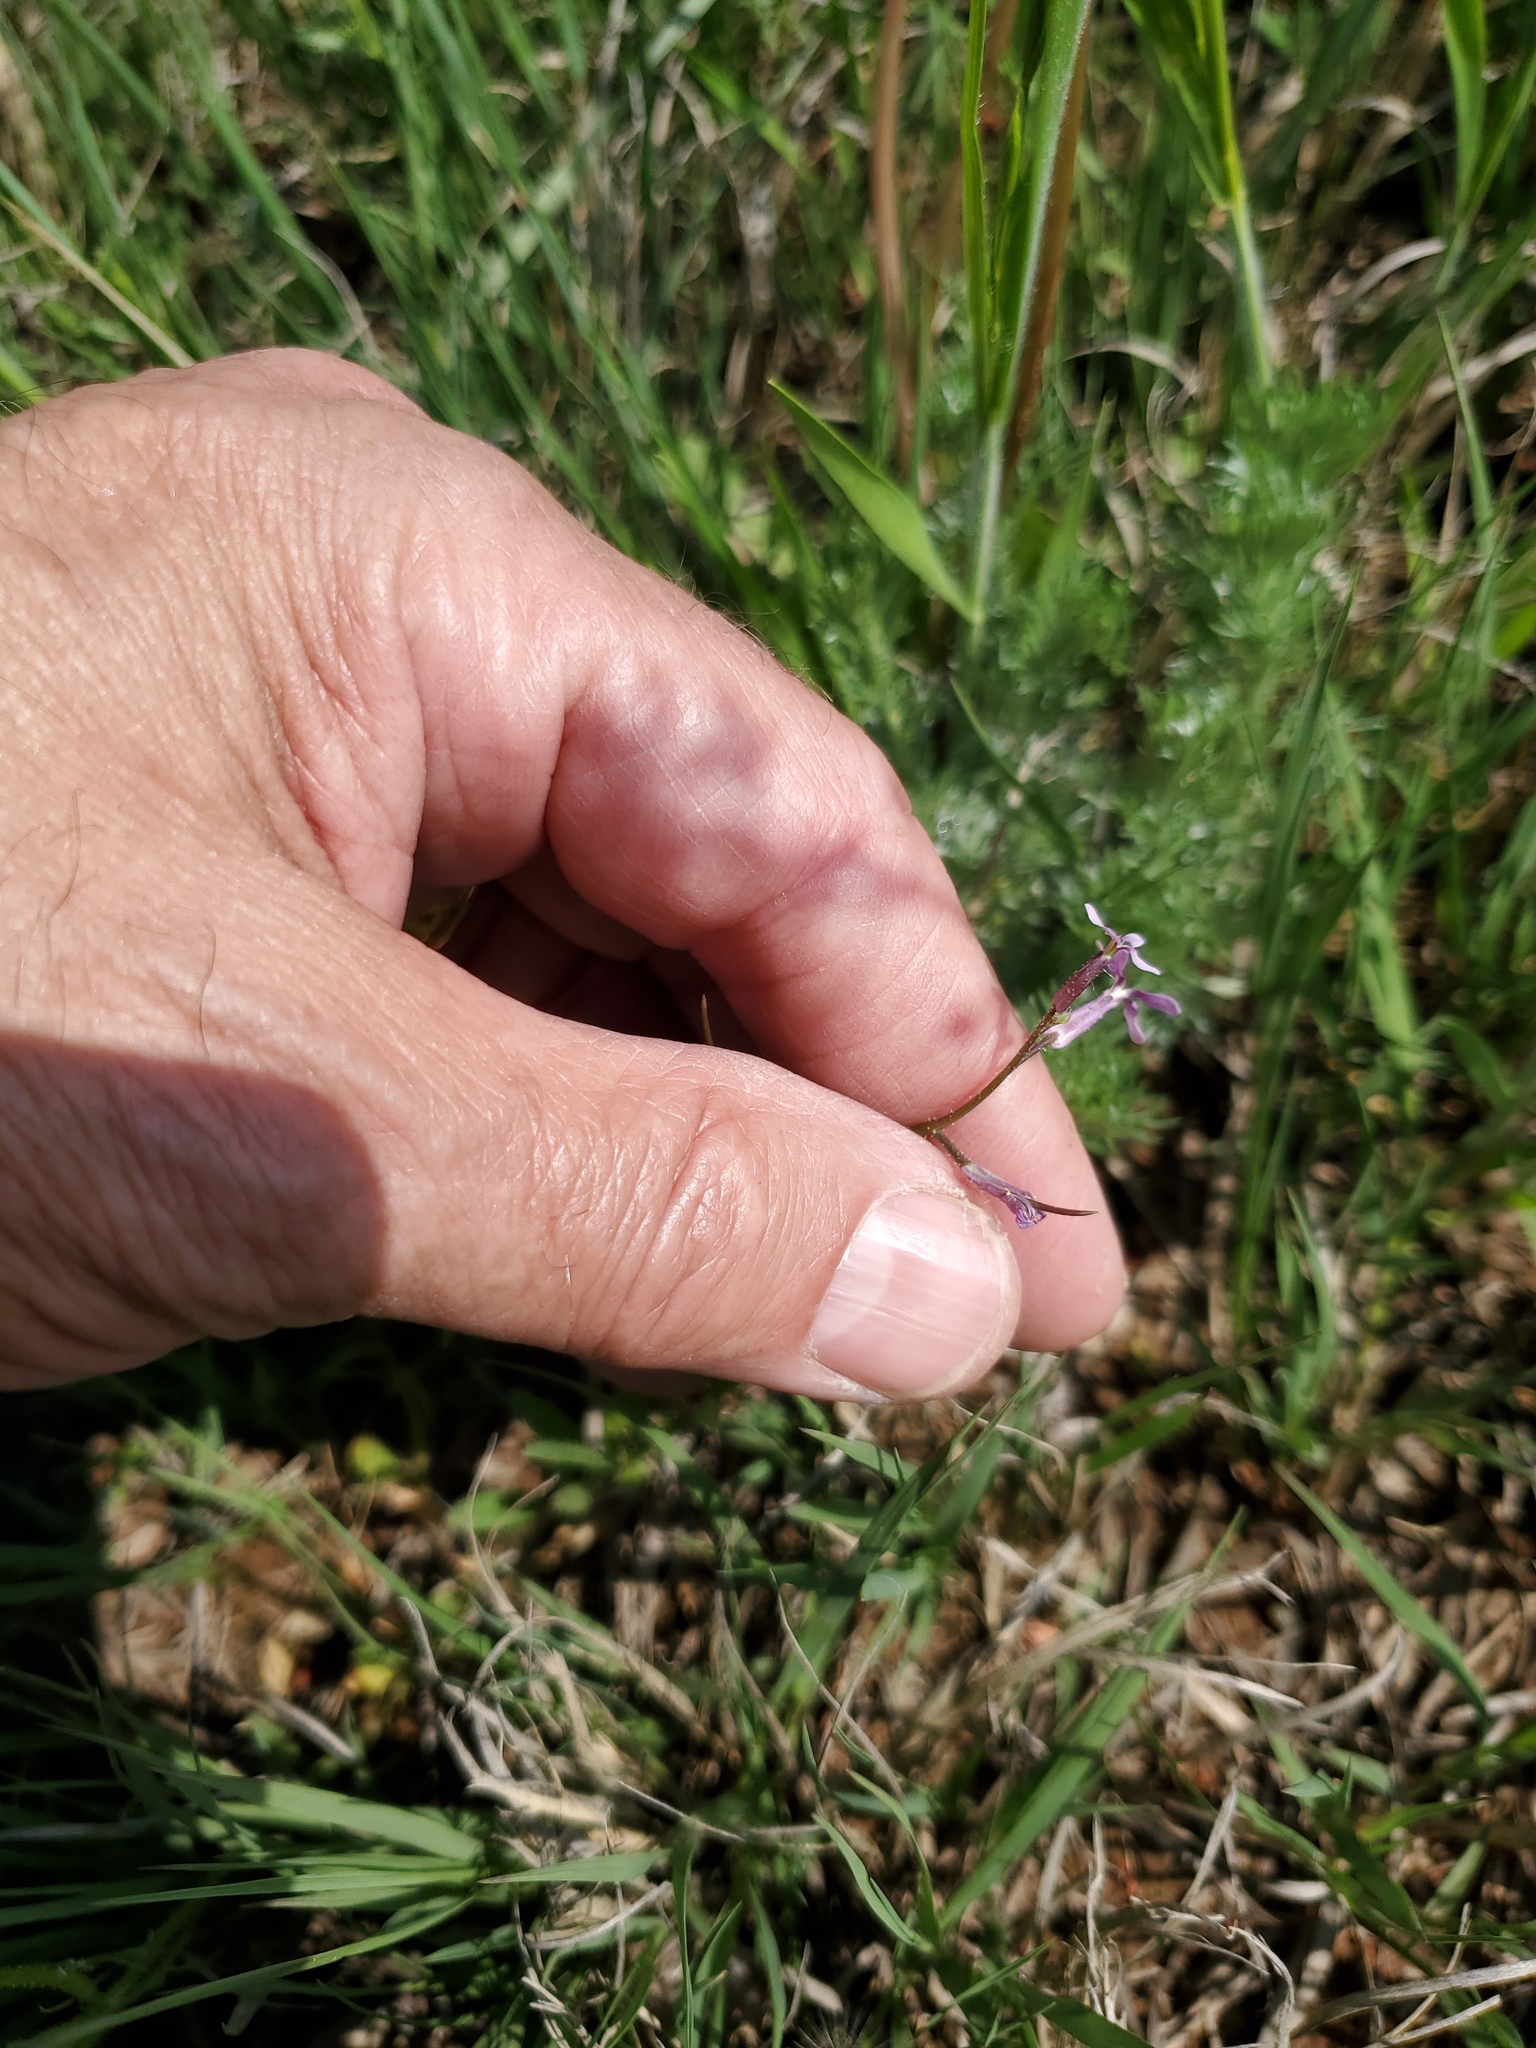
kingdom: Plantae
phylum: Tracheophyta
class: Magnoliopsida
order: Brassicales
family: Brassicaceae
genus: Chorispora
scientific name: Chorispora tenella
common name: Crossflower
